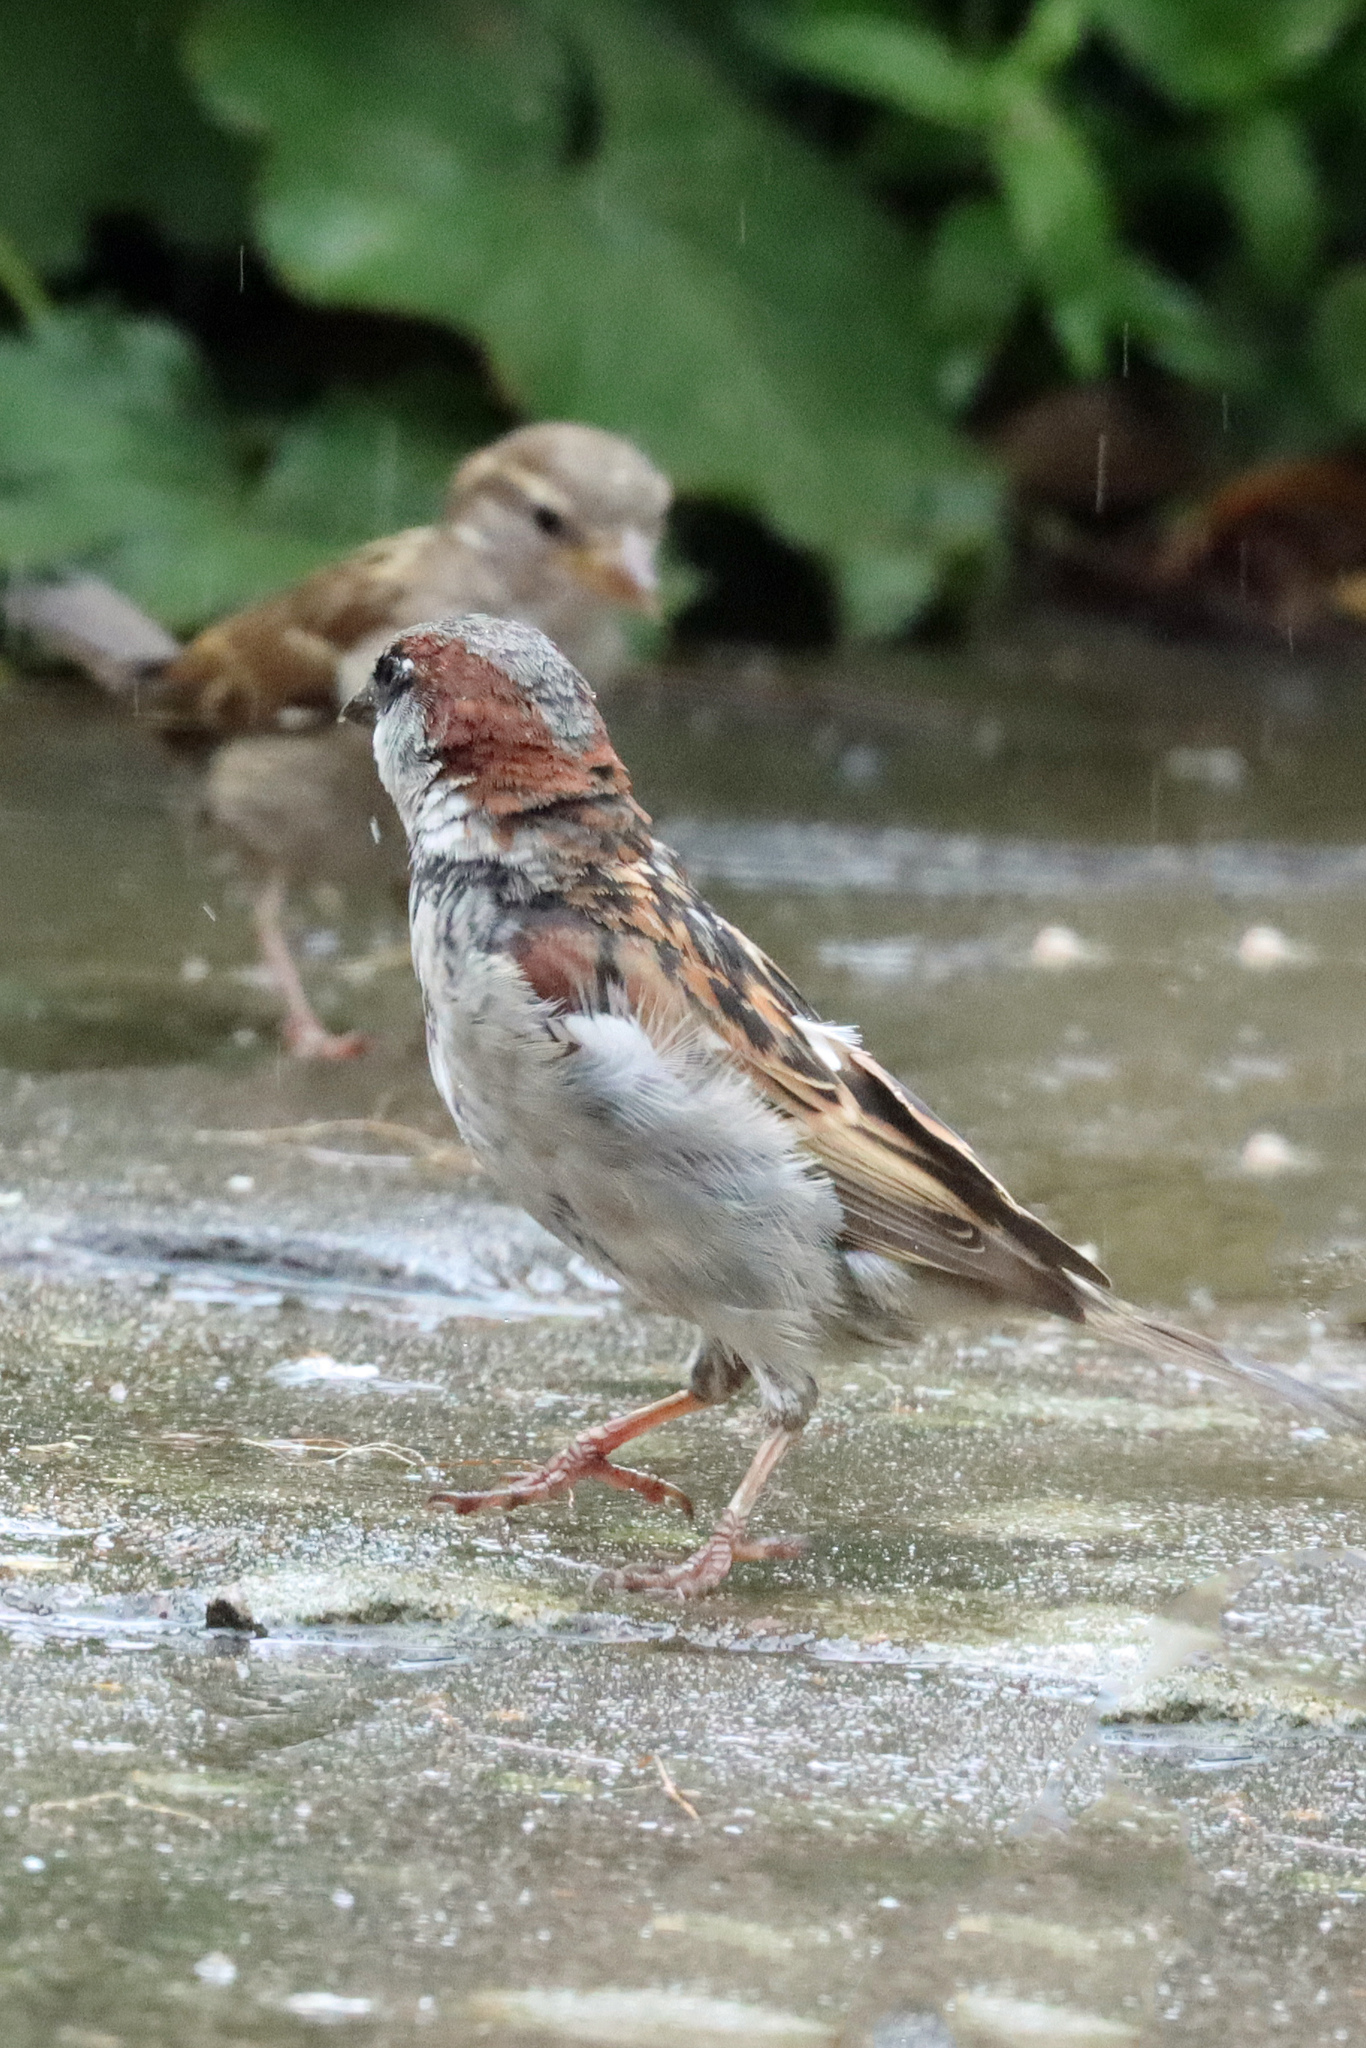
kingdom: Animalia
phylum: Chordata
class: Aves
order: Passeriformes
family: Passeridae
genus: Passer
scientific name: Passer domesticus
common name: House sparrow
